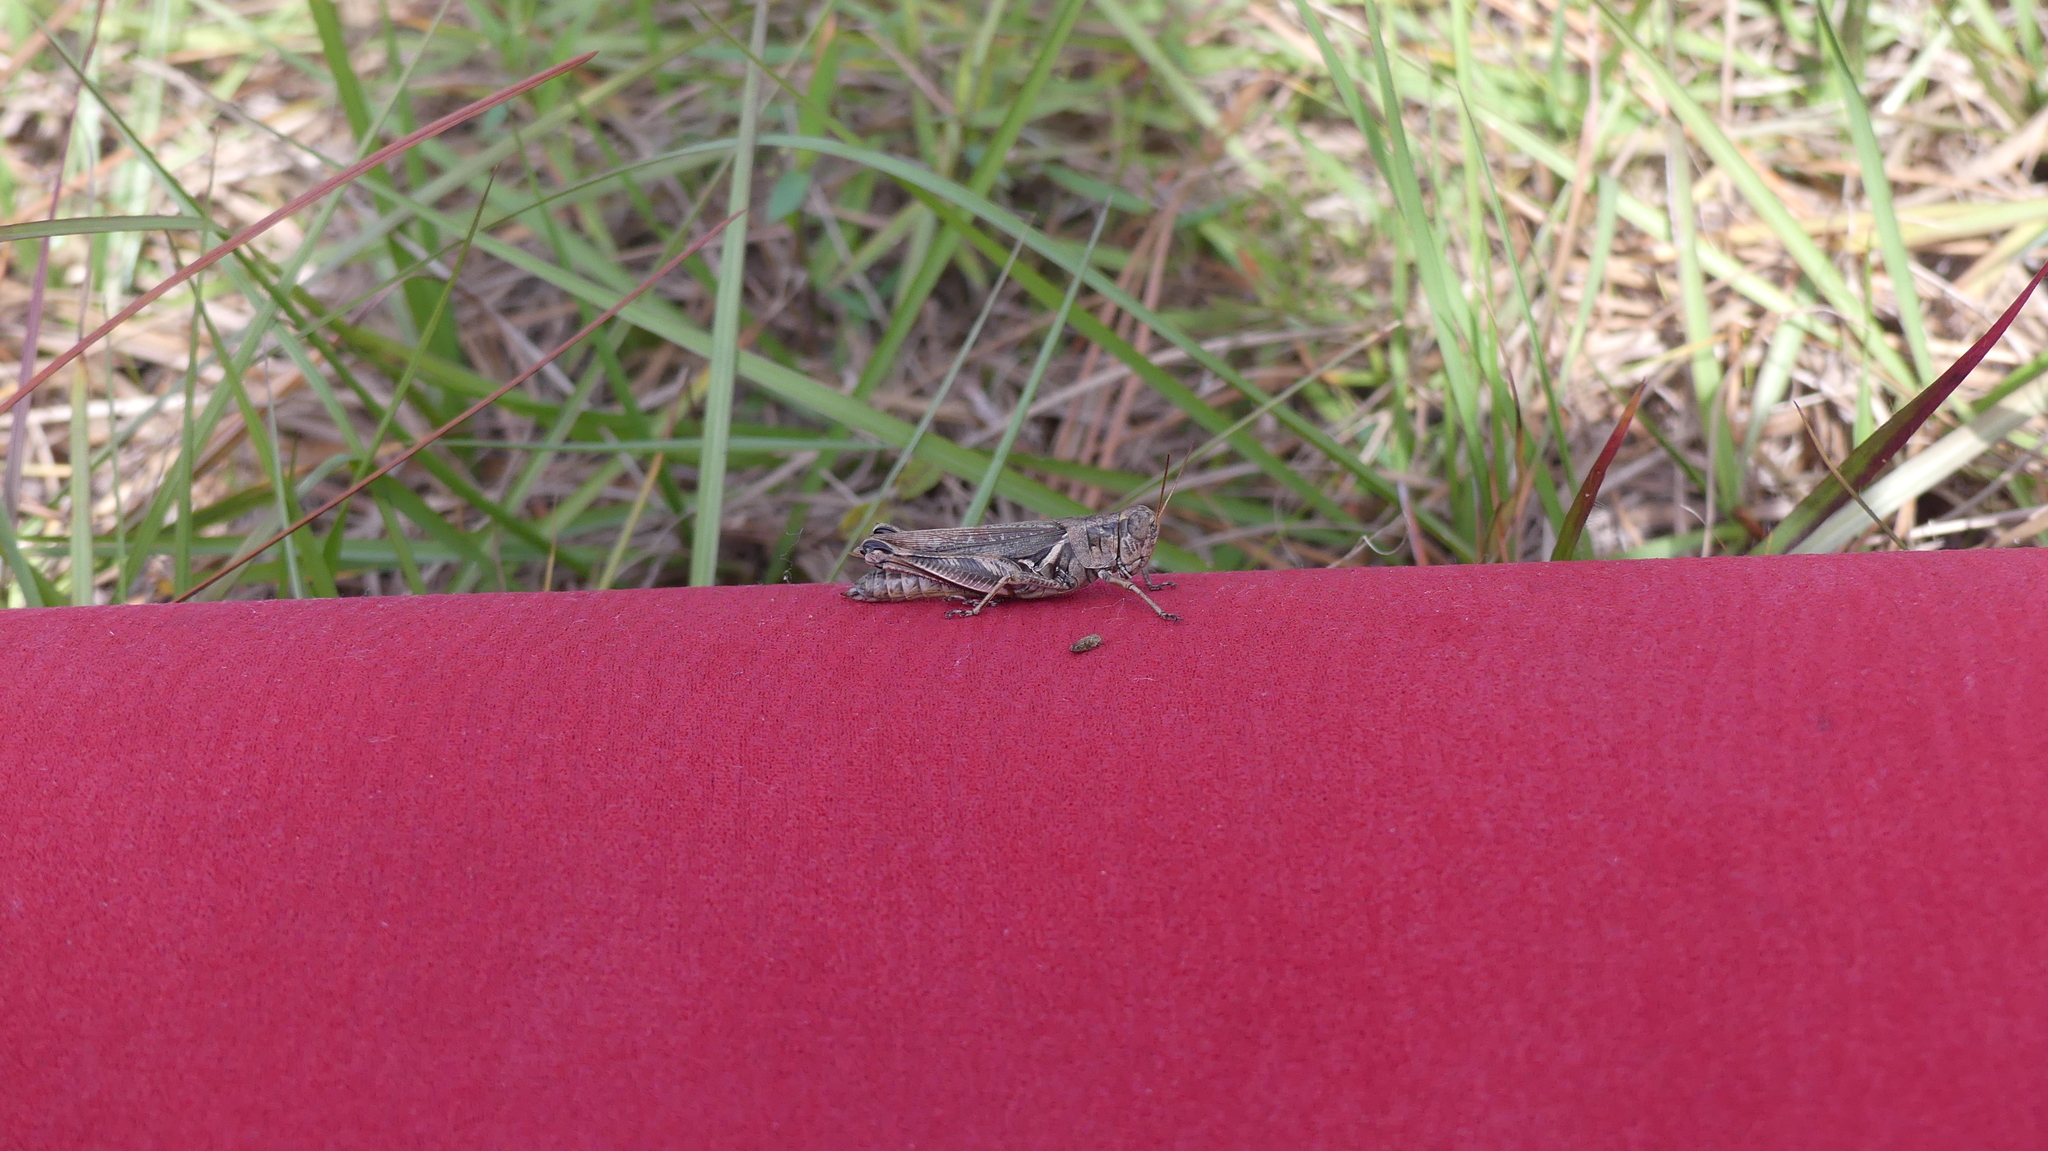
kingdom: Animalia
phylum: Arthropoda
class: Insecta
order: Orthoptera
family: Acrididae
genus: Melanoplus
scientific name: Melanoplus keeleri
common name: Keeler grasshopper
